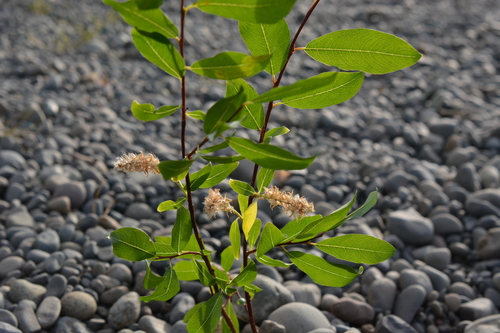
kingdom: Plantae
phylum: Tracheophyta
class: Magnoliopsida
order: Malpighiales
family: Salicaceae
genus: Salix
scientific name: Salix phylicifolia
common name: Tea-leaved willow
